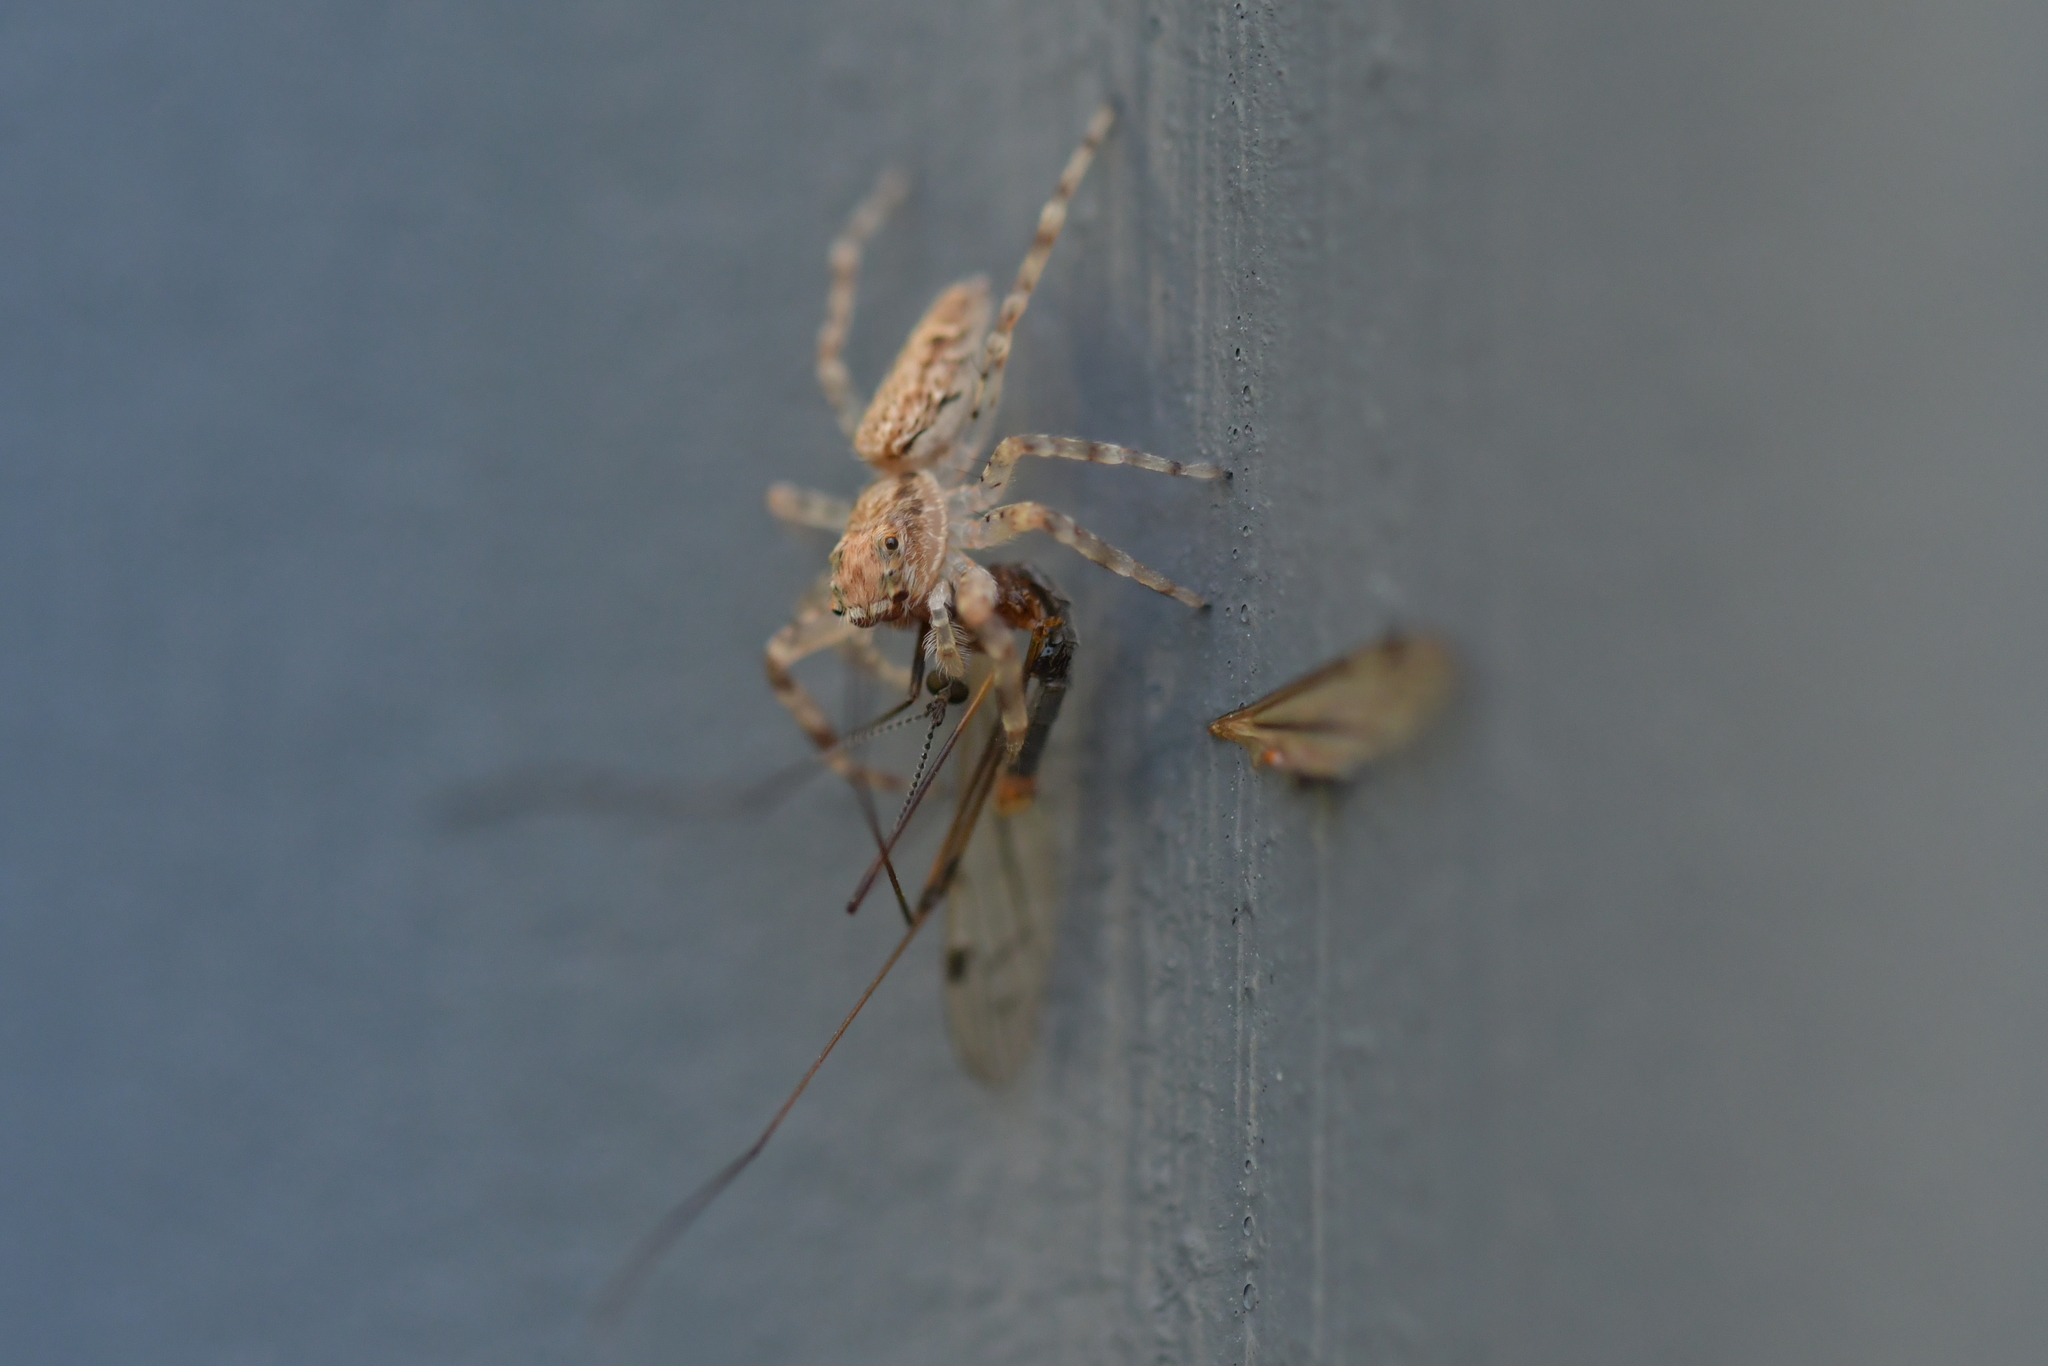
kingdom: Animalia
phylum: Arthropoda
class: Arachnida
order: Araneae
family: Salticidae
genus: Helpis
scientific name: Helpis minitabunda
